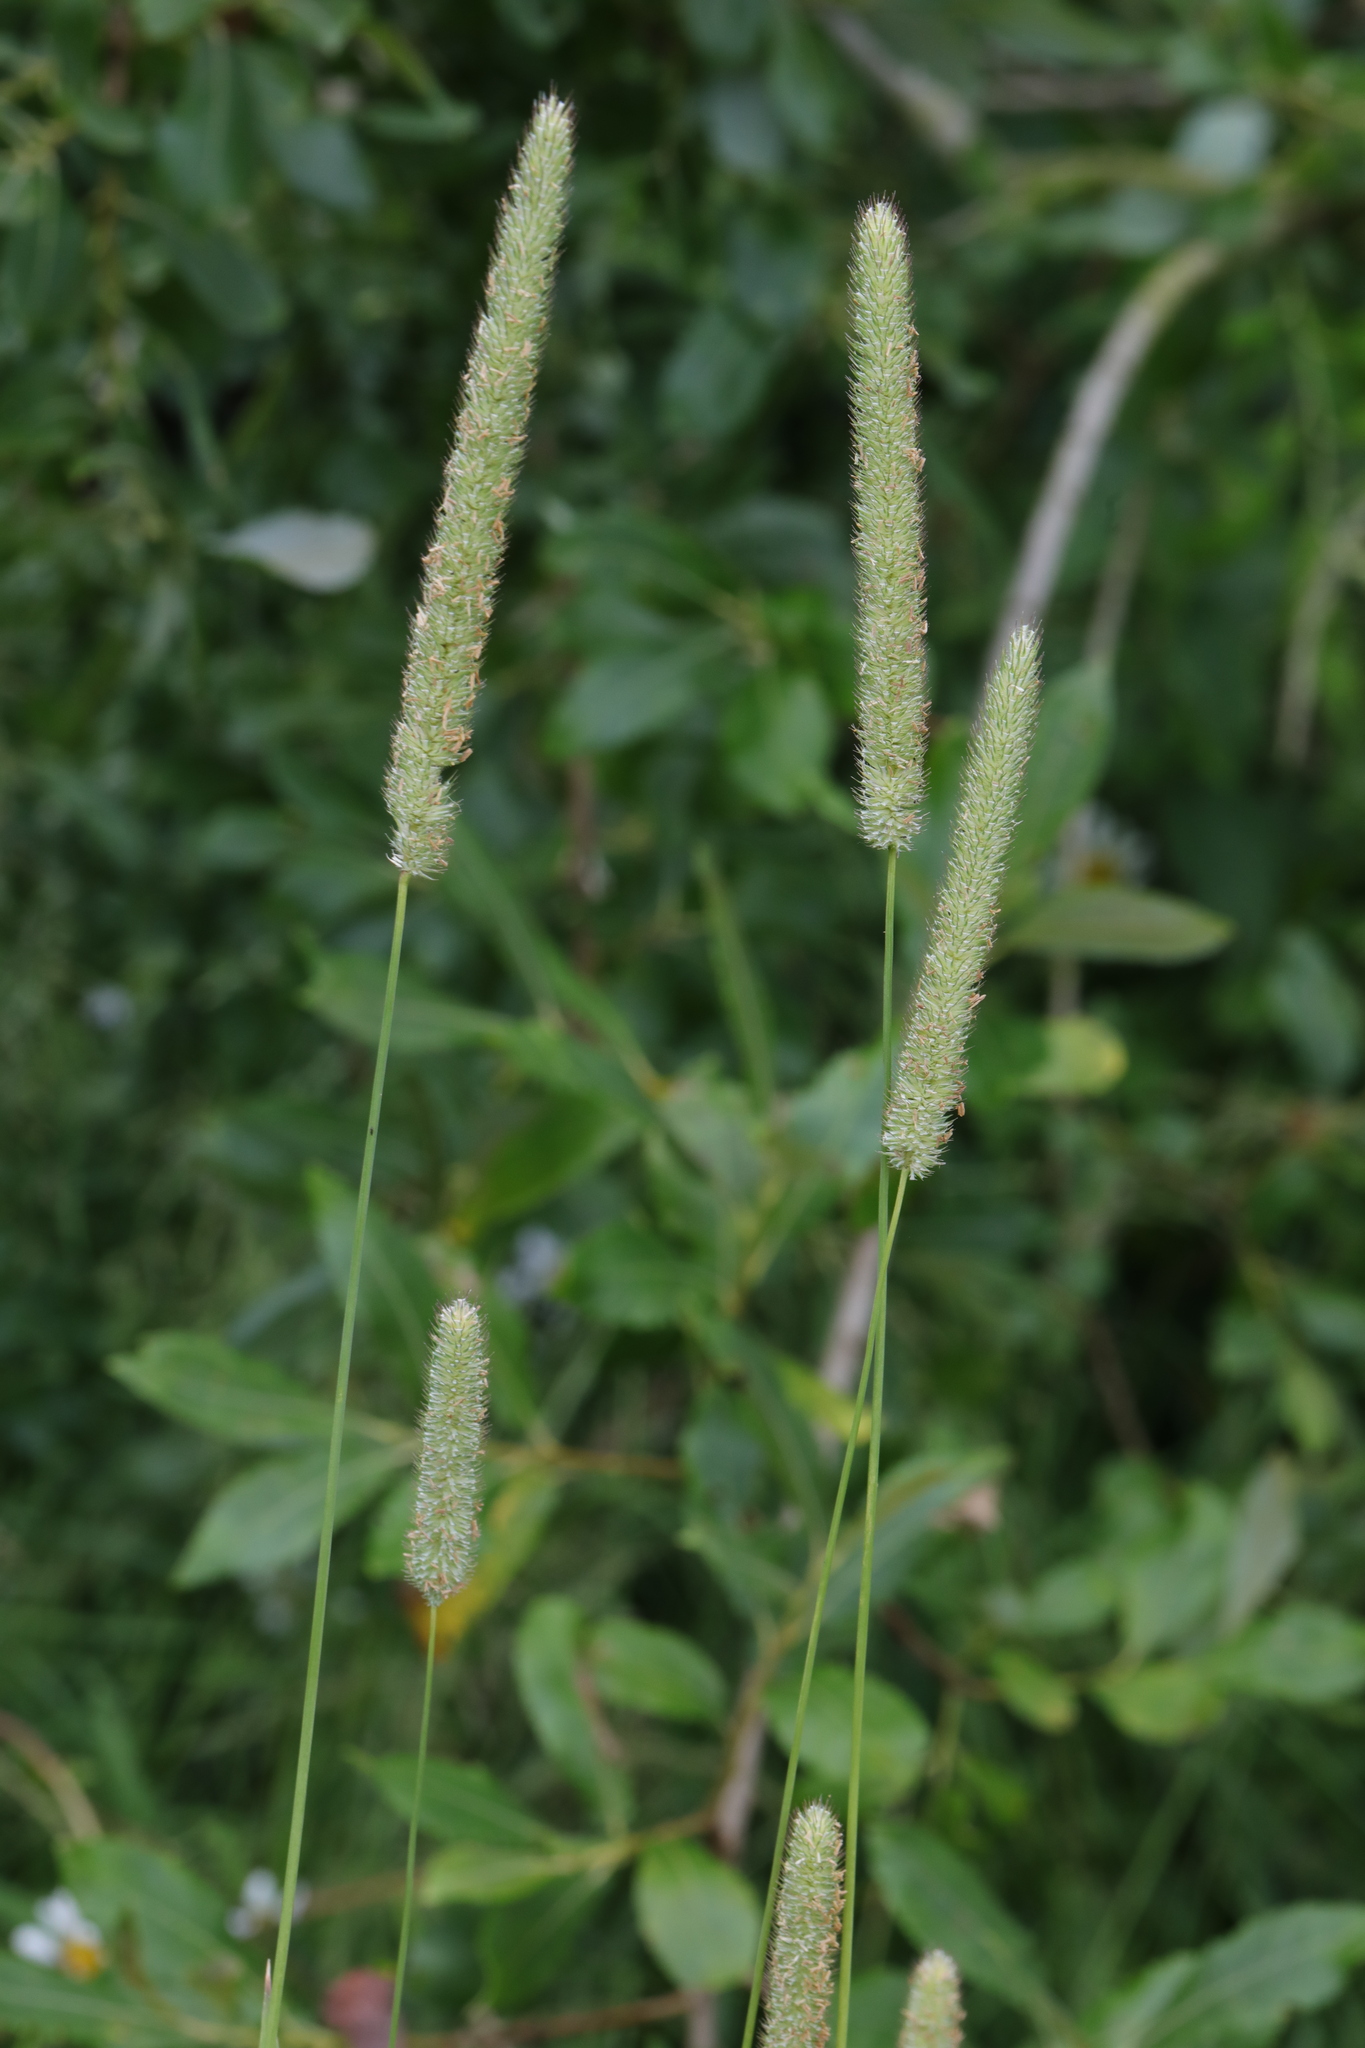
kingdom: Plantae
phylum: Tracheophyta
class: Liliopsida
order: Poales
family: Poaceae
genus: Phleum
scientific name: Phleum pratense
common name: Timothy grass
